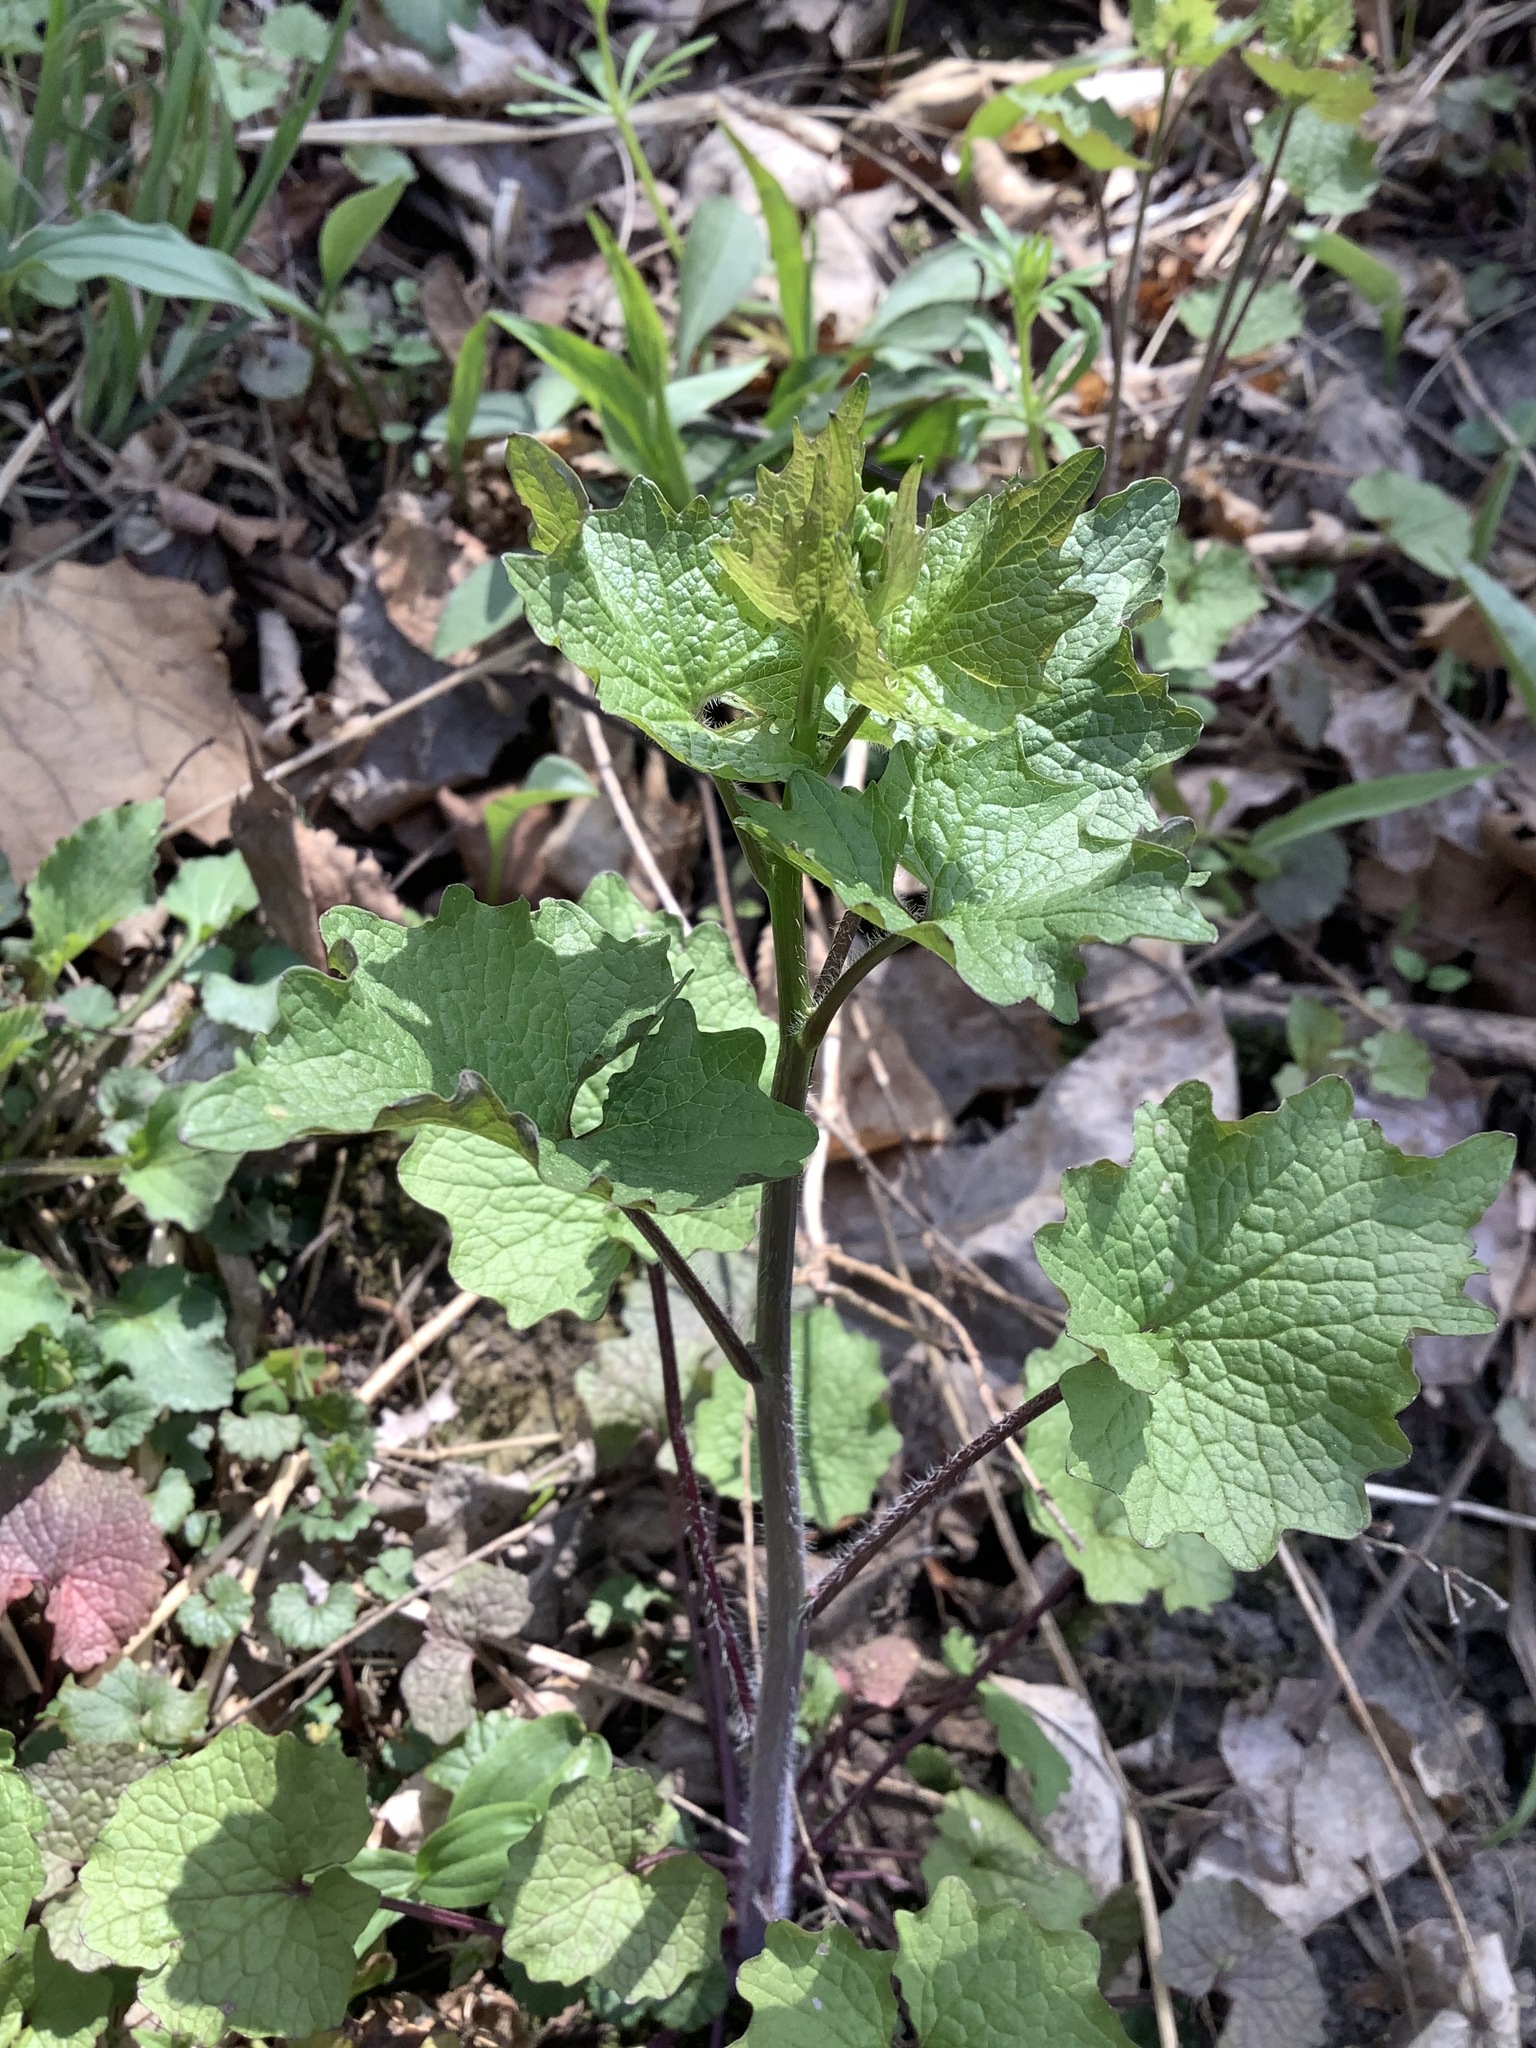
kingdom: Plantae
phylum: Tracheophyta
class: Magnoliopsida
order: Brassicales
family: Brassicaceae
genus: Alliaria
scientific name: Alliaria petiolata
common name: Garlic mustard
